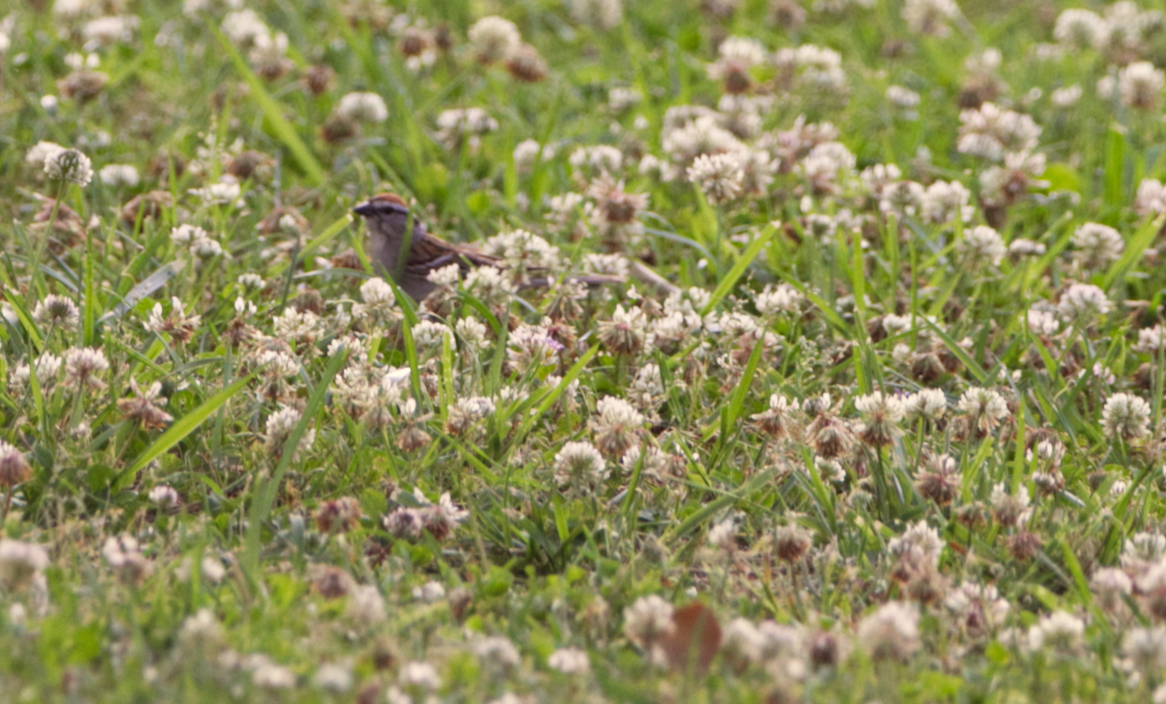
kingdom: Animalia
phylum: Chordata
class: Aves
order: Passeriformes
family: Passerellidae
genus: Spizella
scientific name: Spizella passerina
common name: Chipping sparrow
